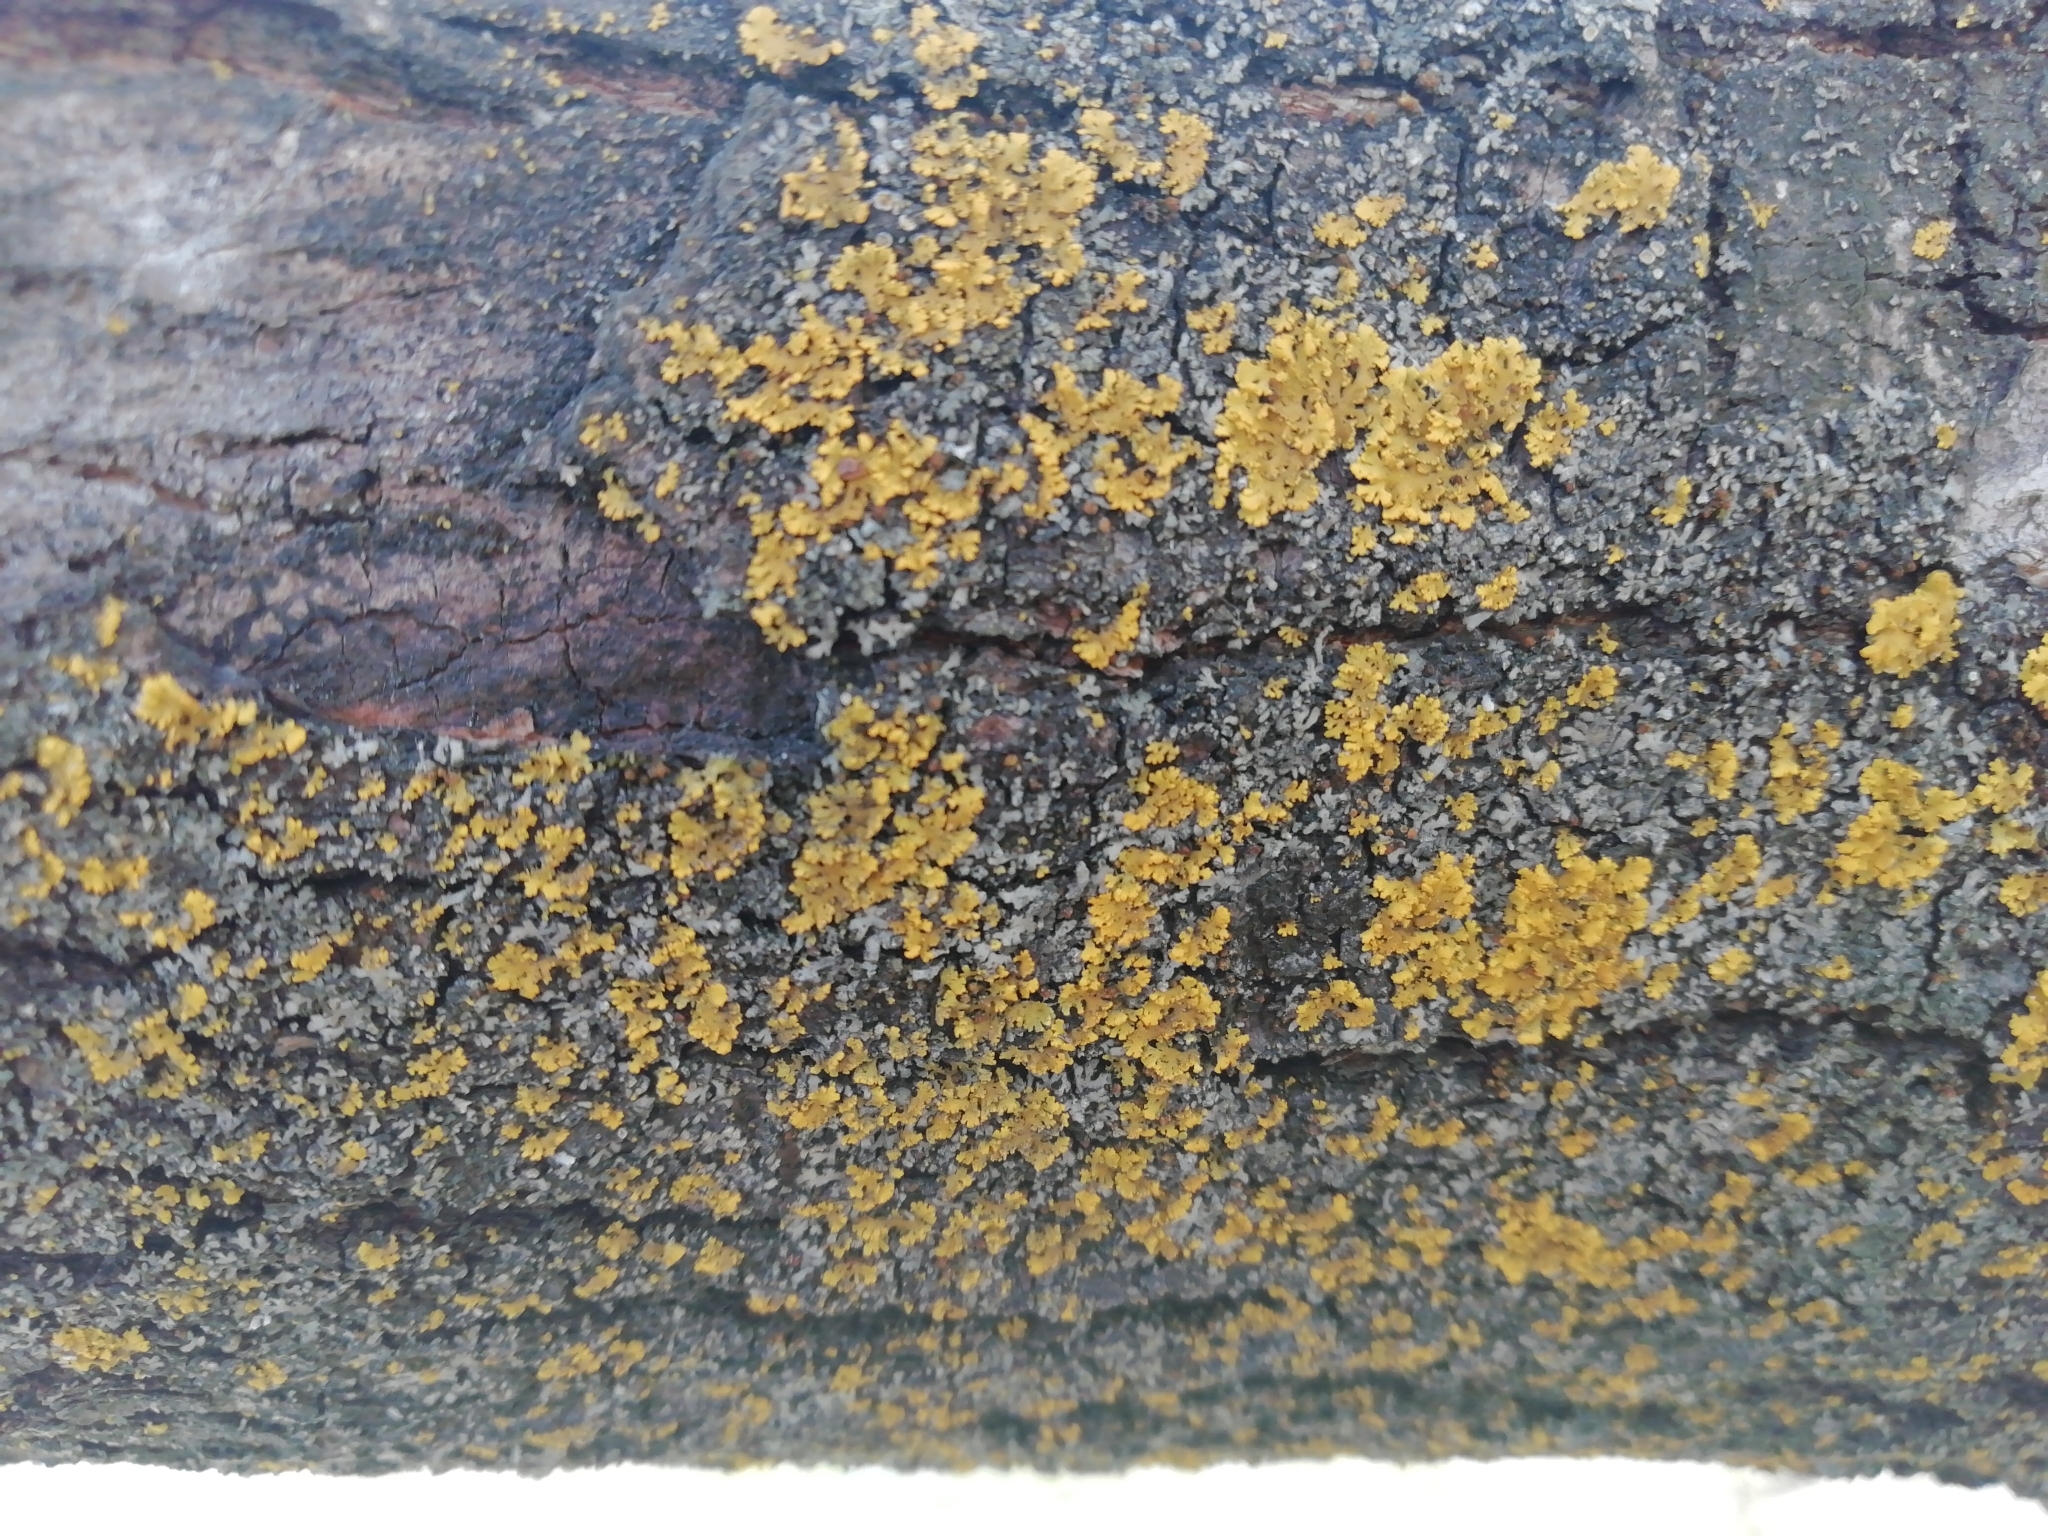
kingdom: Fungi
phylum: Ascomycota
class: Lecanoromycetes
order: Teloschistales
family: Teloschistaceae
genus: Gallowayella
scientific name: Gallowayella poeltii
